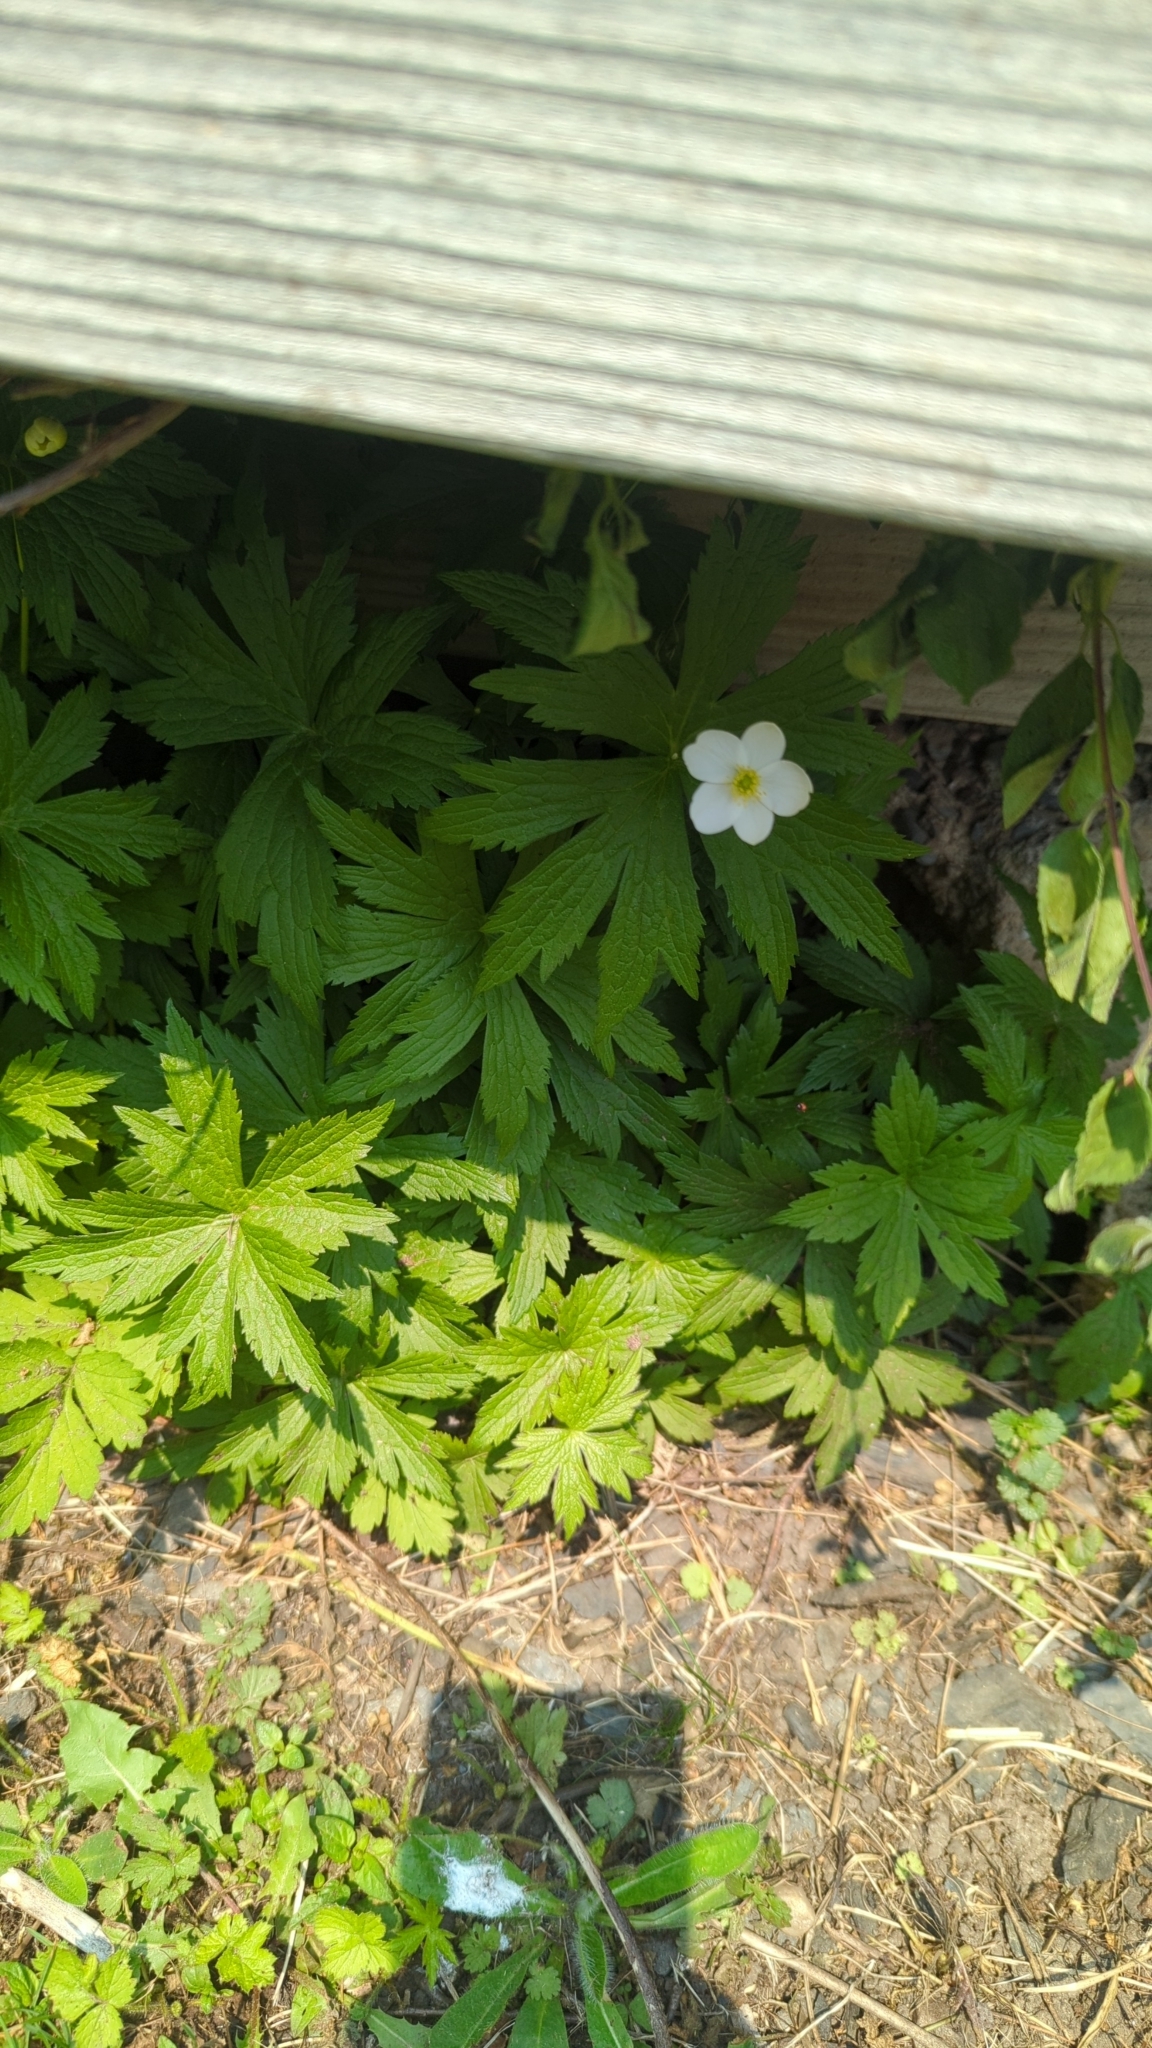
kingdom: Plantae
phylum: Tracheophyta
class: Magnoliopsida
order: Ranunculales
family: Ranunculaceae
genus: Anemonastrum
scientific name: Anemonastrum canadense
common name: Canada anemone
